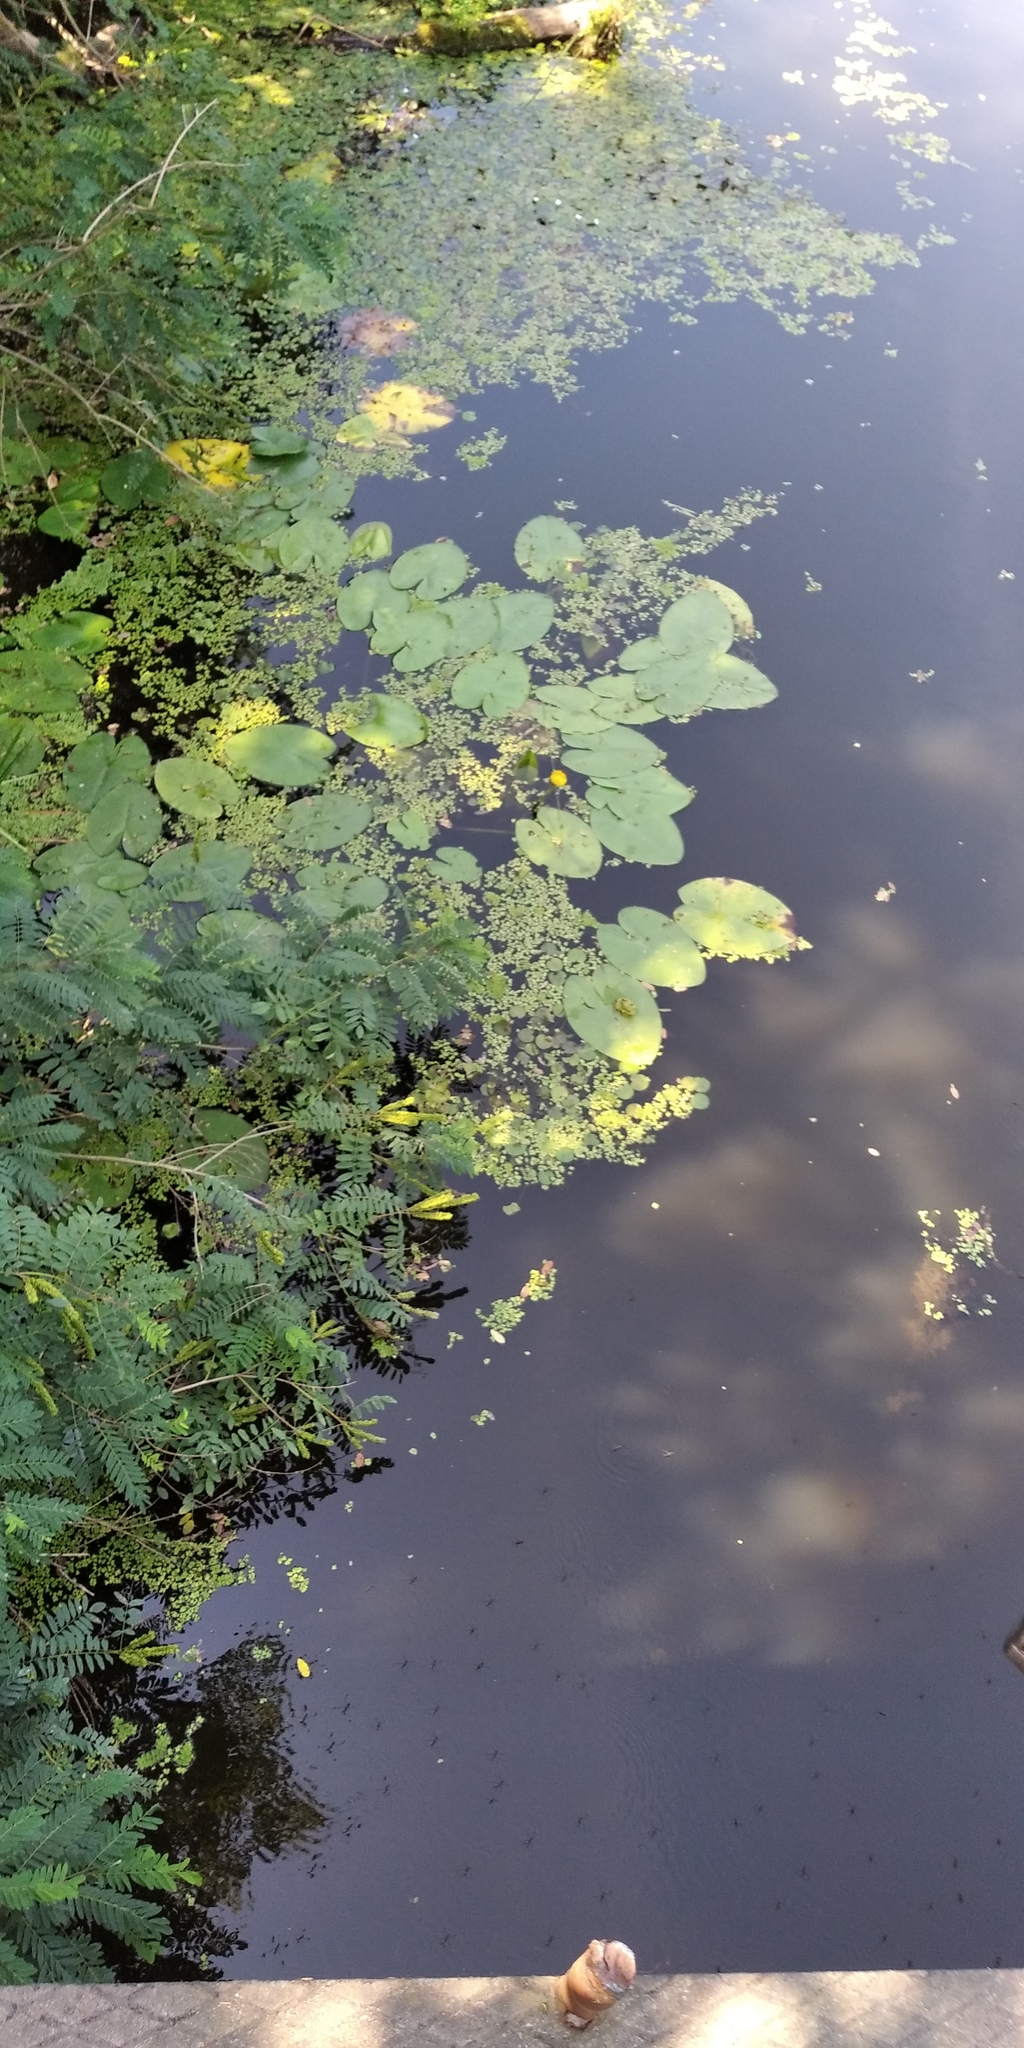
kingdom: Plantae
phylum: Tracheophyta
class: Magnoliopsida
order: Nymphaeales
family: Nymphaeaceae
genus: Nuphar
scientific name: Nuphar lutea
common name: Yellow water-lily
